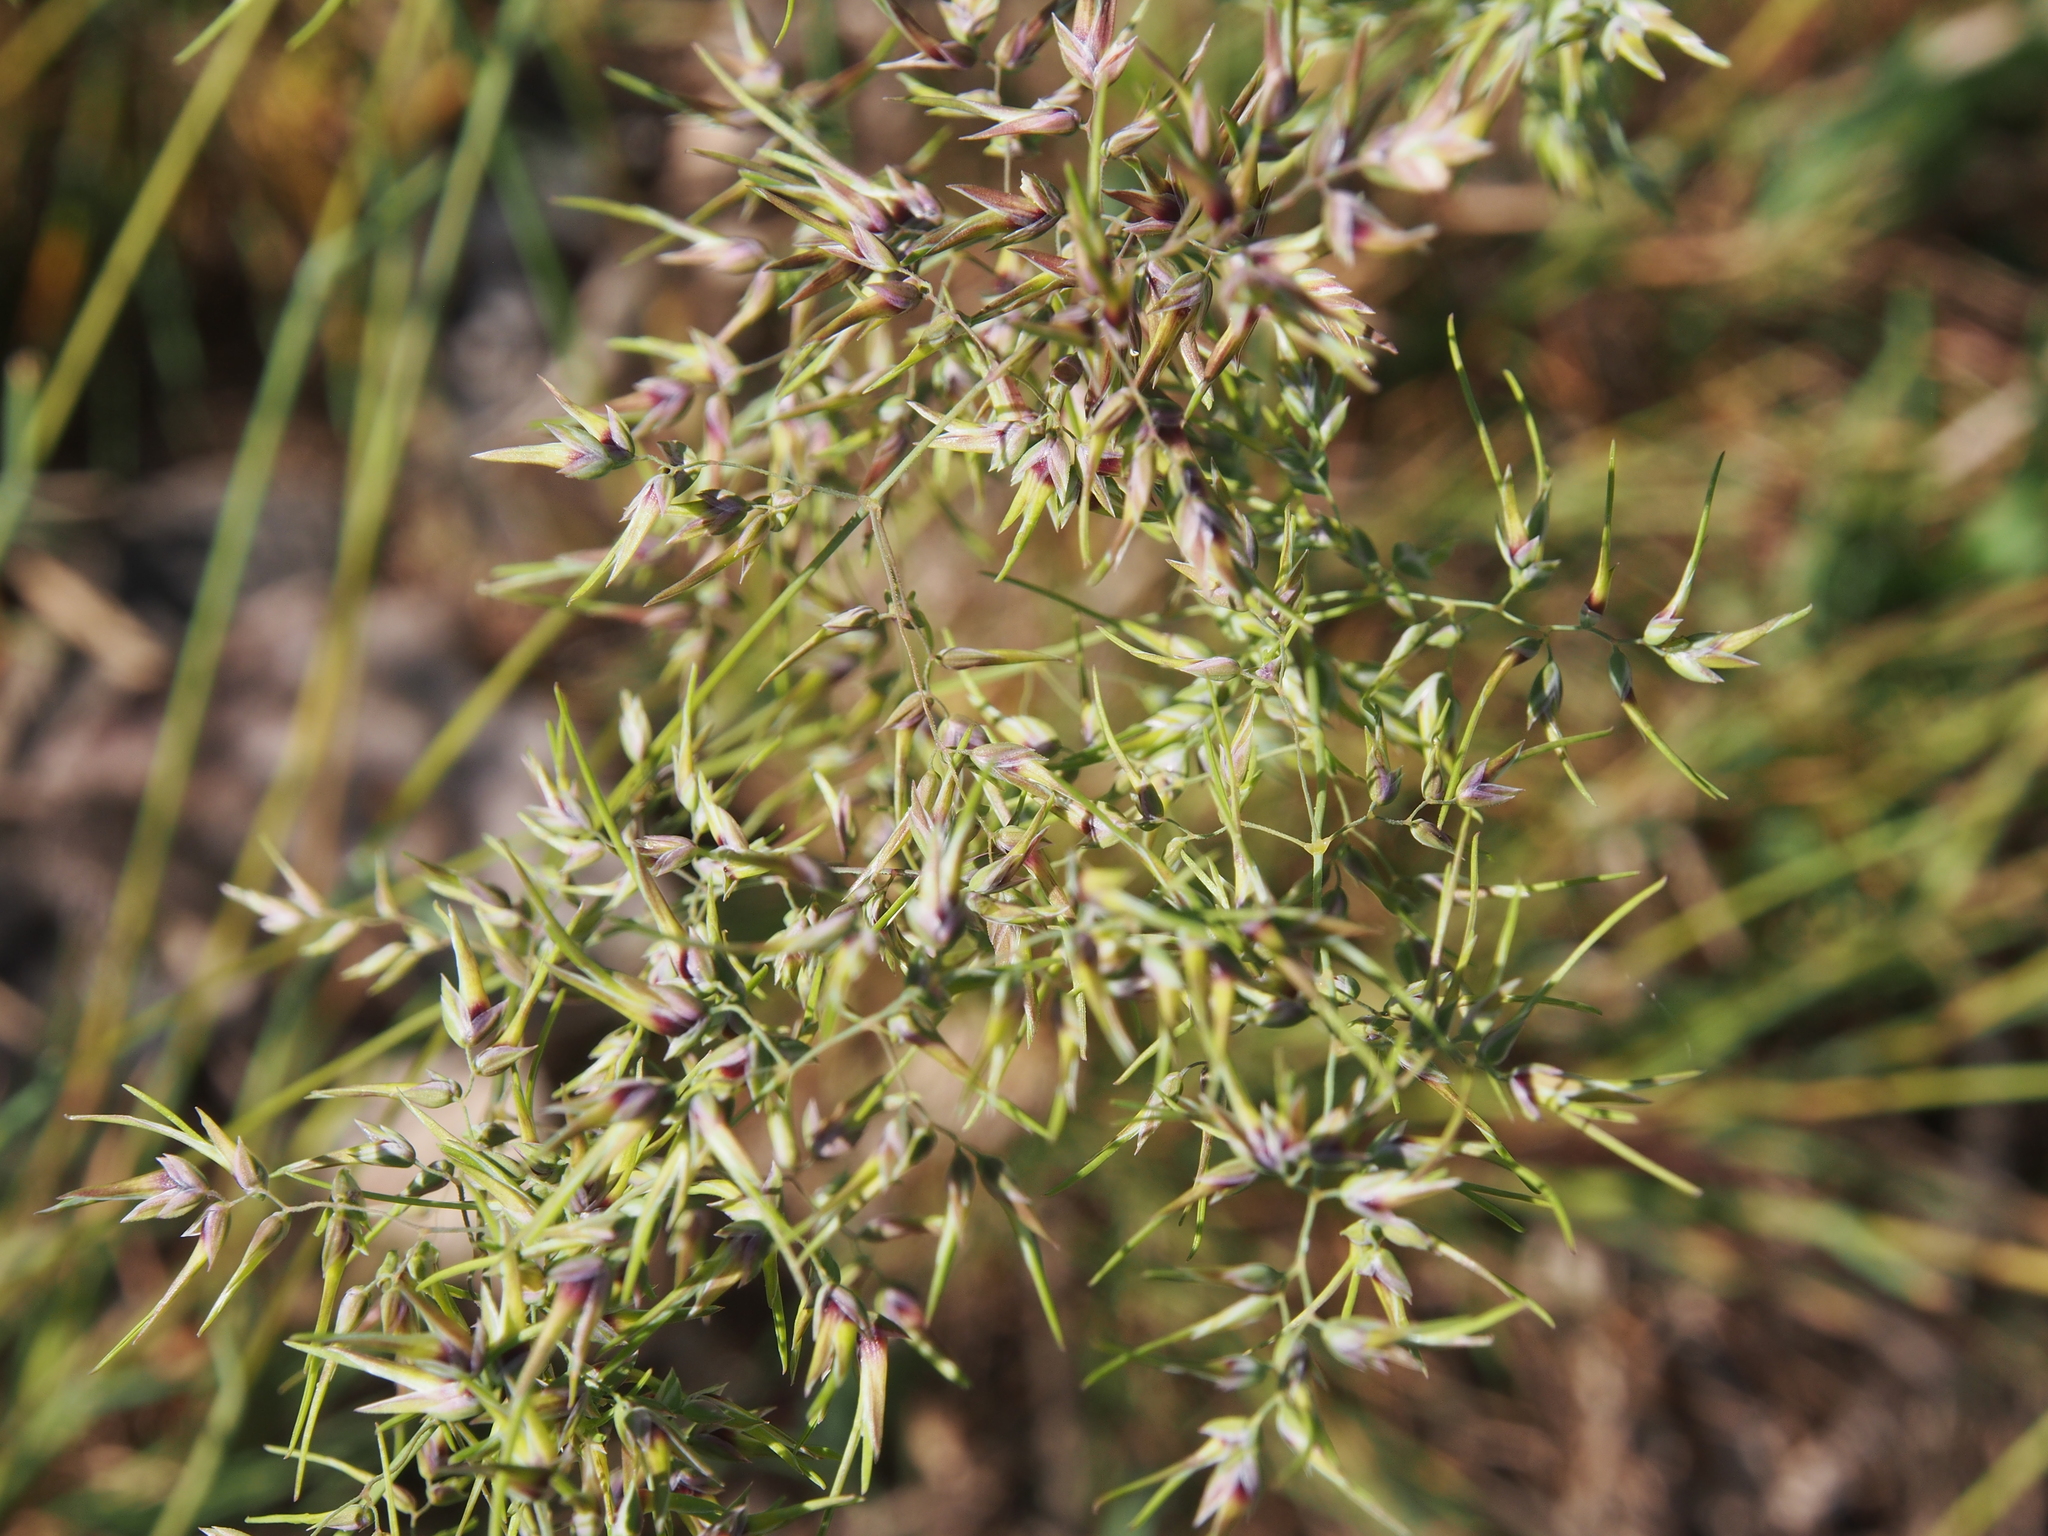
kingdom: Plantae
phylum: Tracheophyta
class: Liliopsida
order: Poales
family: Poaceae
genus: Poa
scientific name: Poa bulbosa
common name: Bulbous bluegrass
